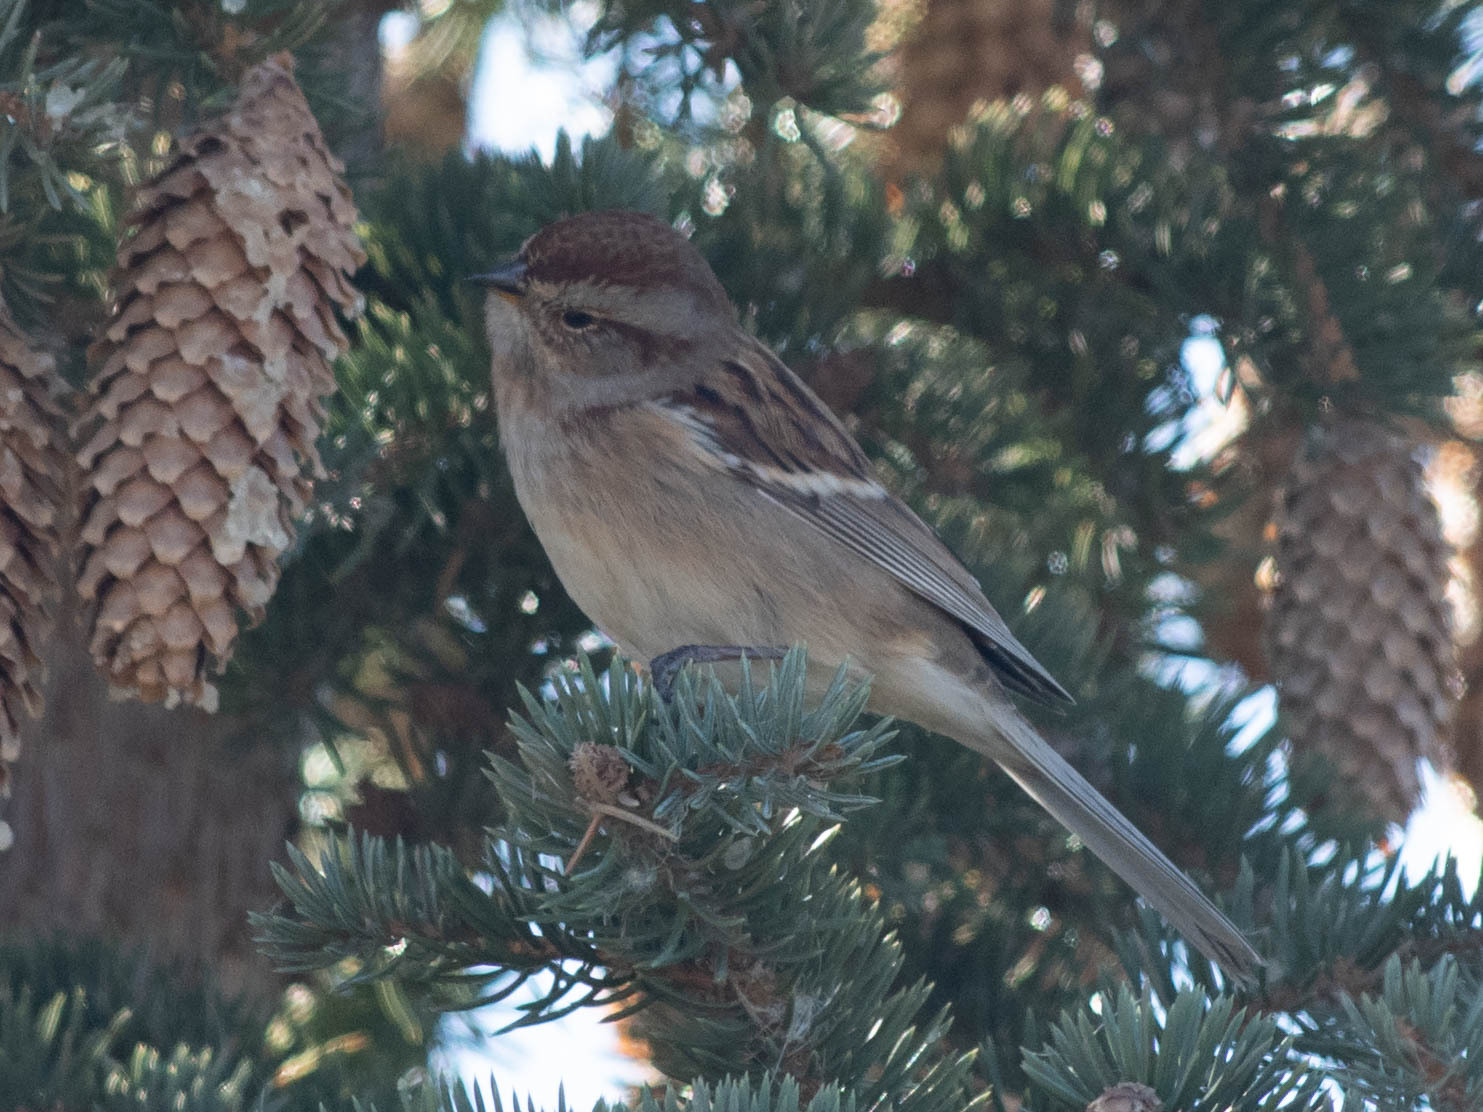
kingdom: Animalia
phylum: Chordata
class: Aves
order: Passeriformes
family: Passerellidae
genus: Spizelloides
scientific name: Spizelloides arborea
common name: American tree sparrow
